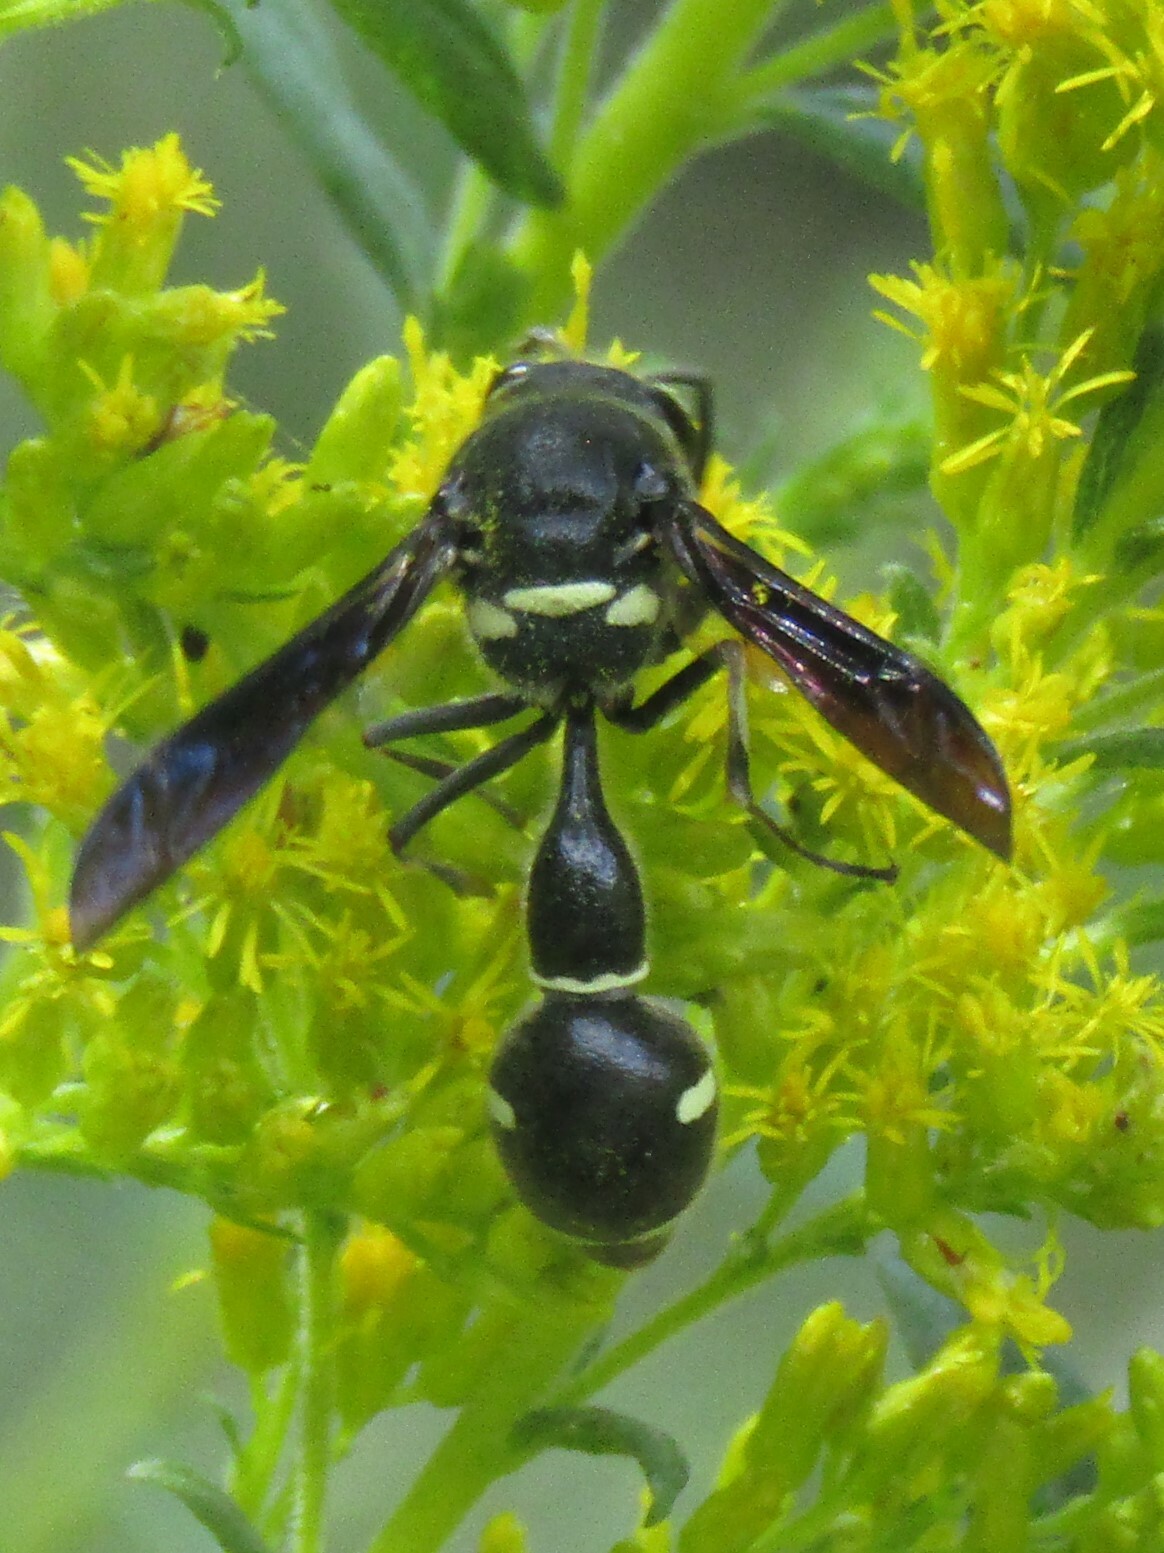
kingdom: Animalia
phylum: Arthropoda
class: Insecta
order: Hymenoptera
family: Vespidae
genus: Eumenes
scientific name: Eumenes fraternus
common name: Fraternal potter wasp
